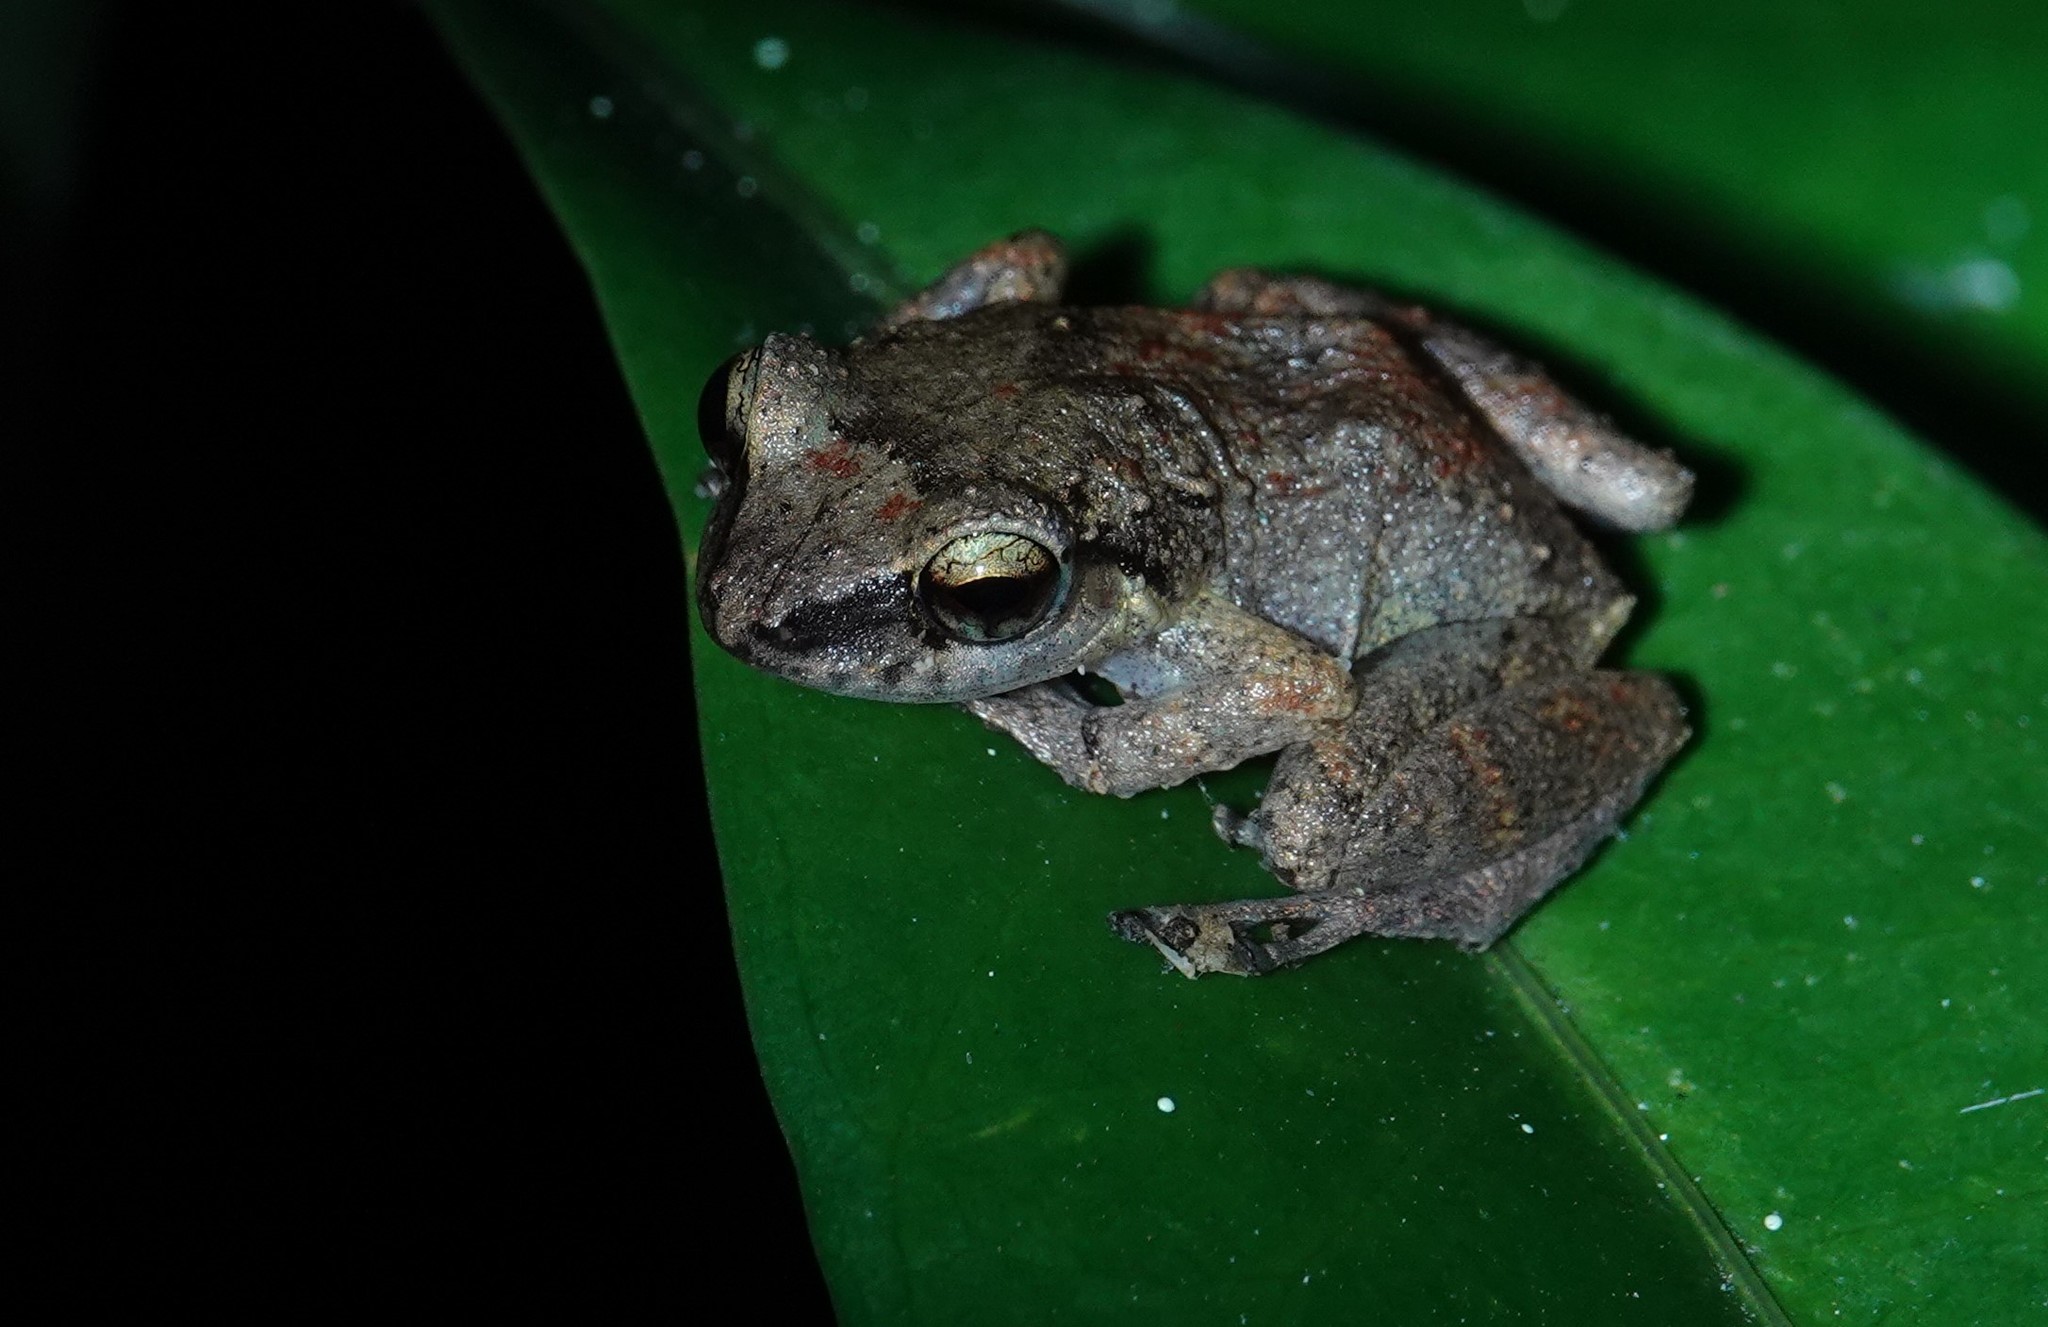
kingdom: Animalia
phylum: Chordata
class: Amphibia
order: Anura
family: Eleutherodactylidae
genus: Eleutherodactylus
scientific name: Eleutherodactylus johnstonei
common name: Johnstone's robber frog
